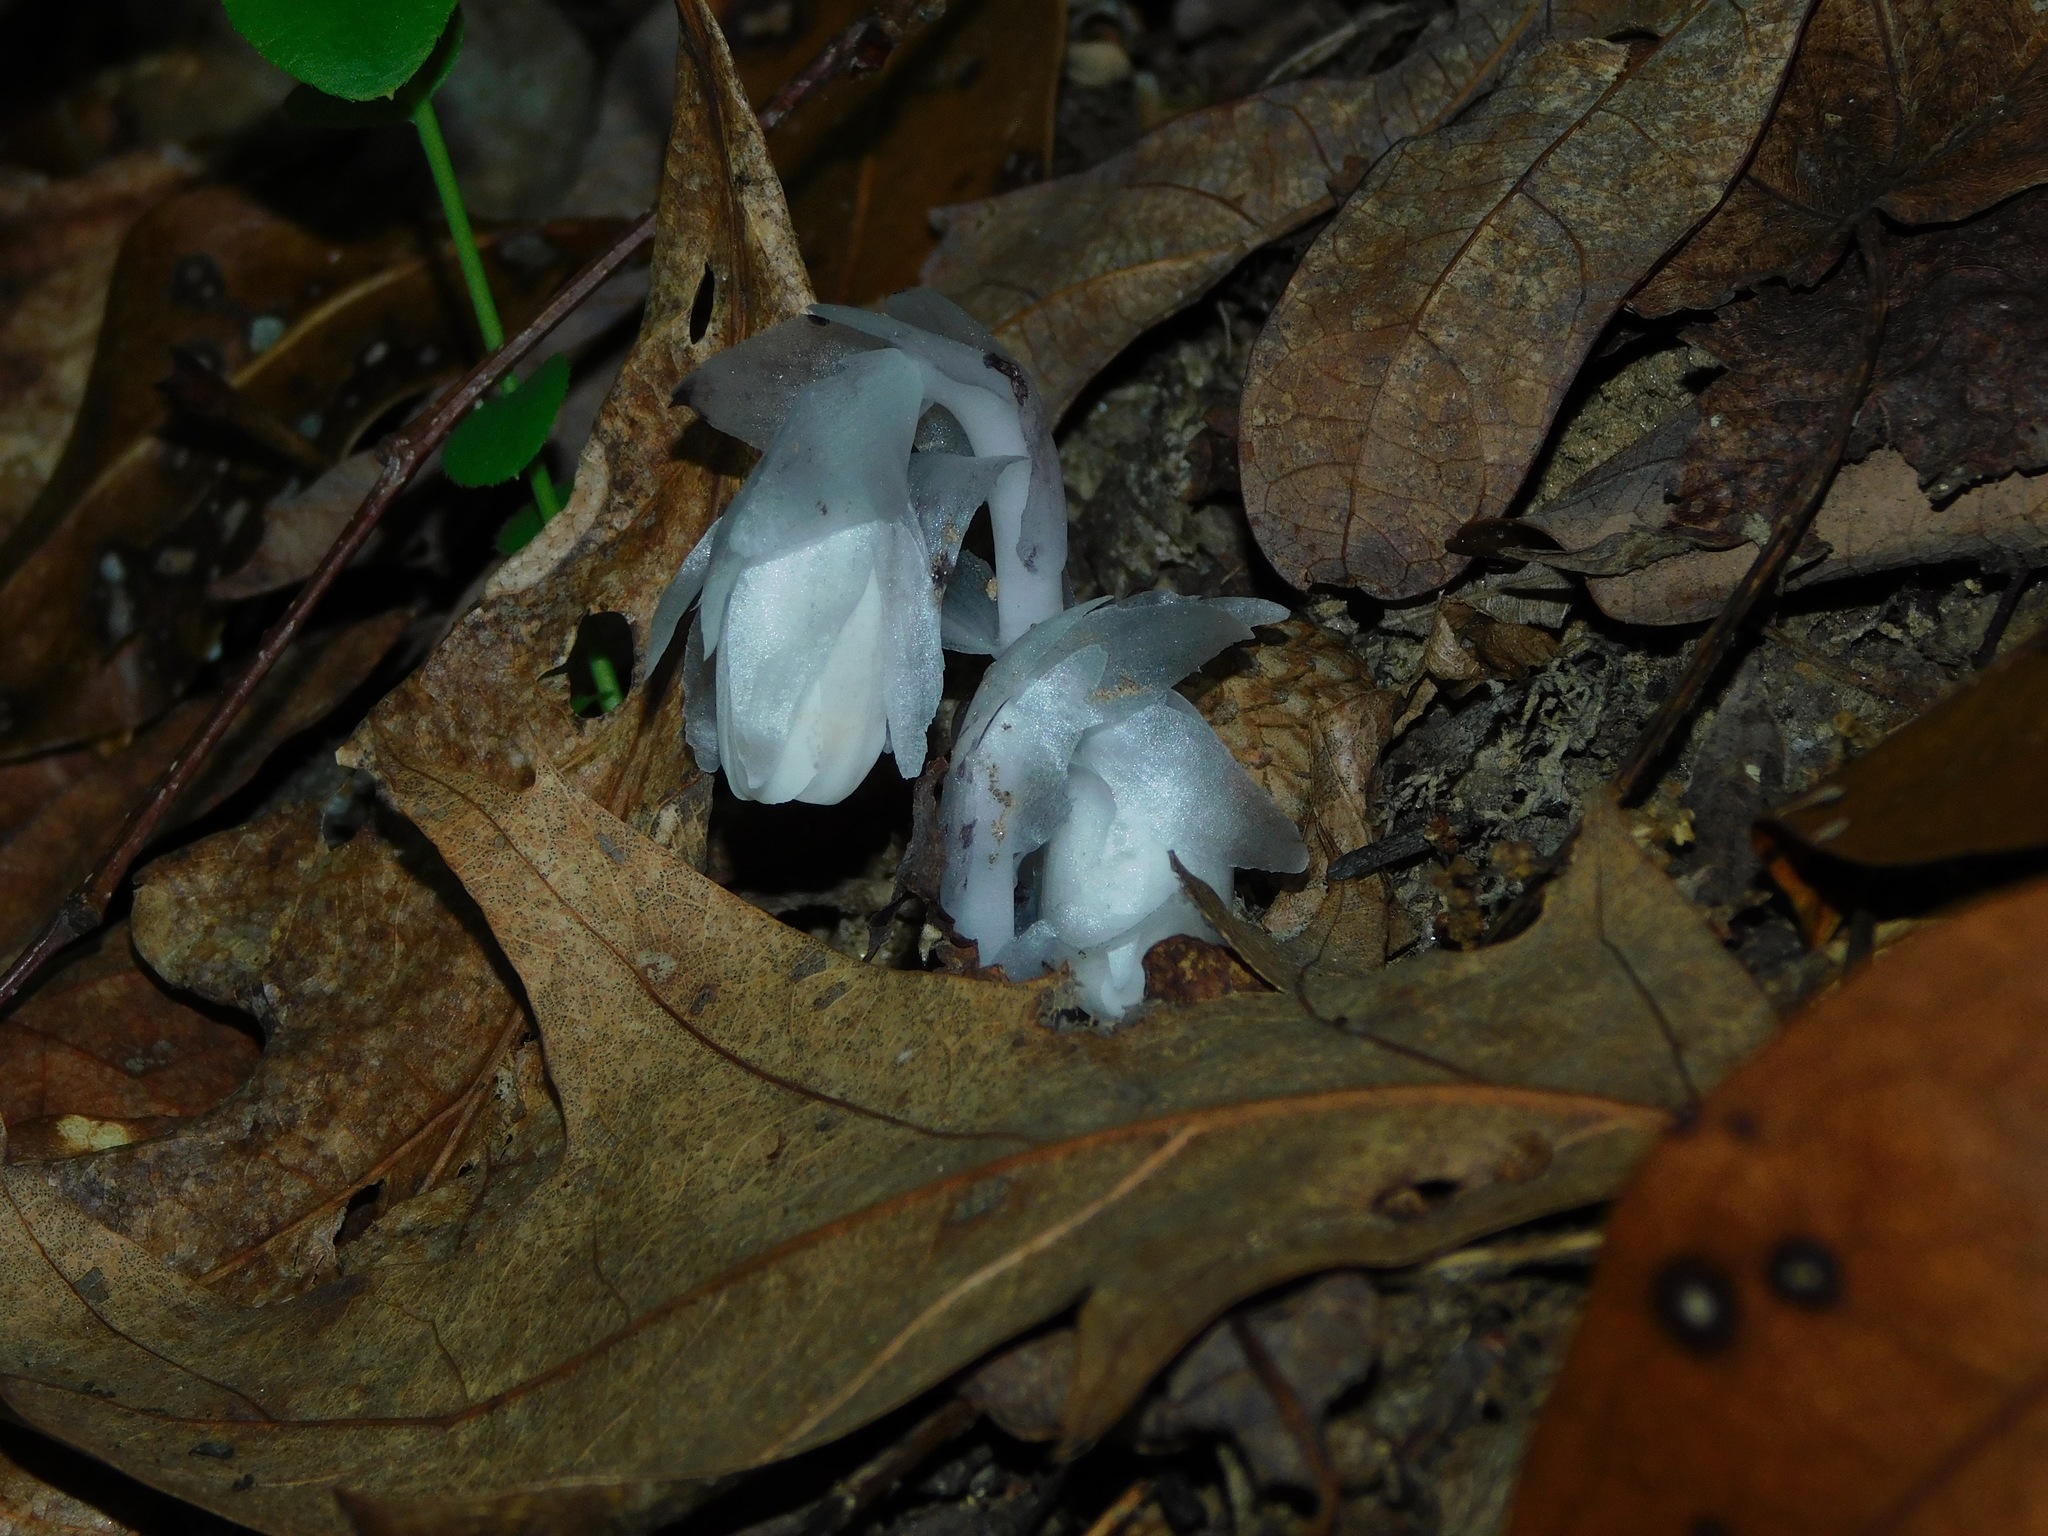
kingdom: Plantae
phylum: Tracheophyta
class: Magnoliopsida
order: Ericales
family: Ericaceae
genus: Monotropa
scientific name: Monotropa uniflora
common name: Convulsion root
